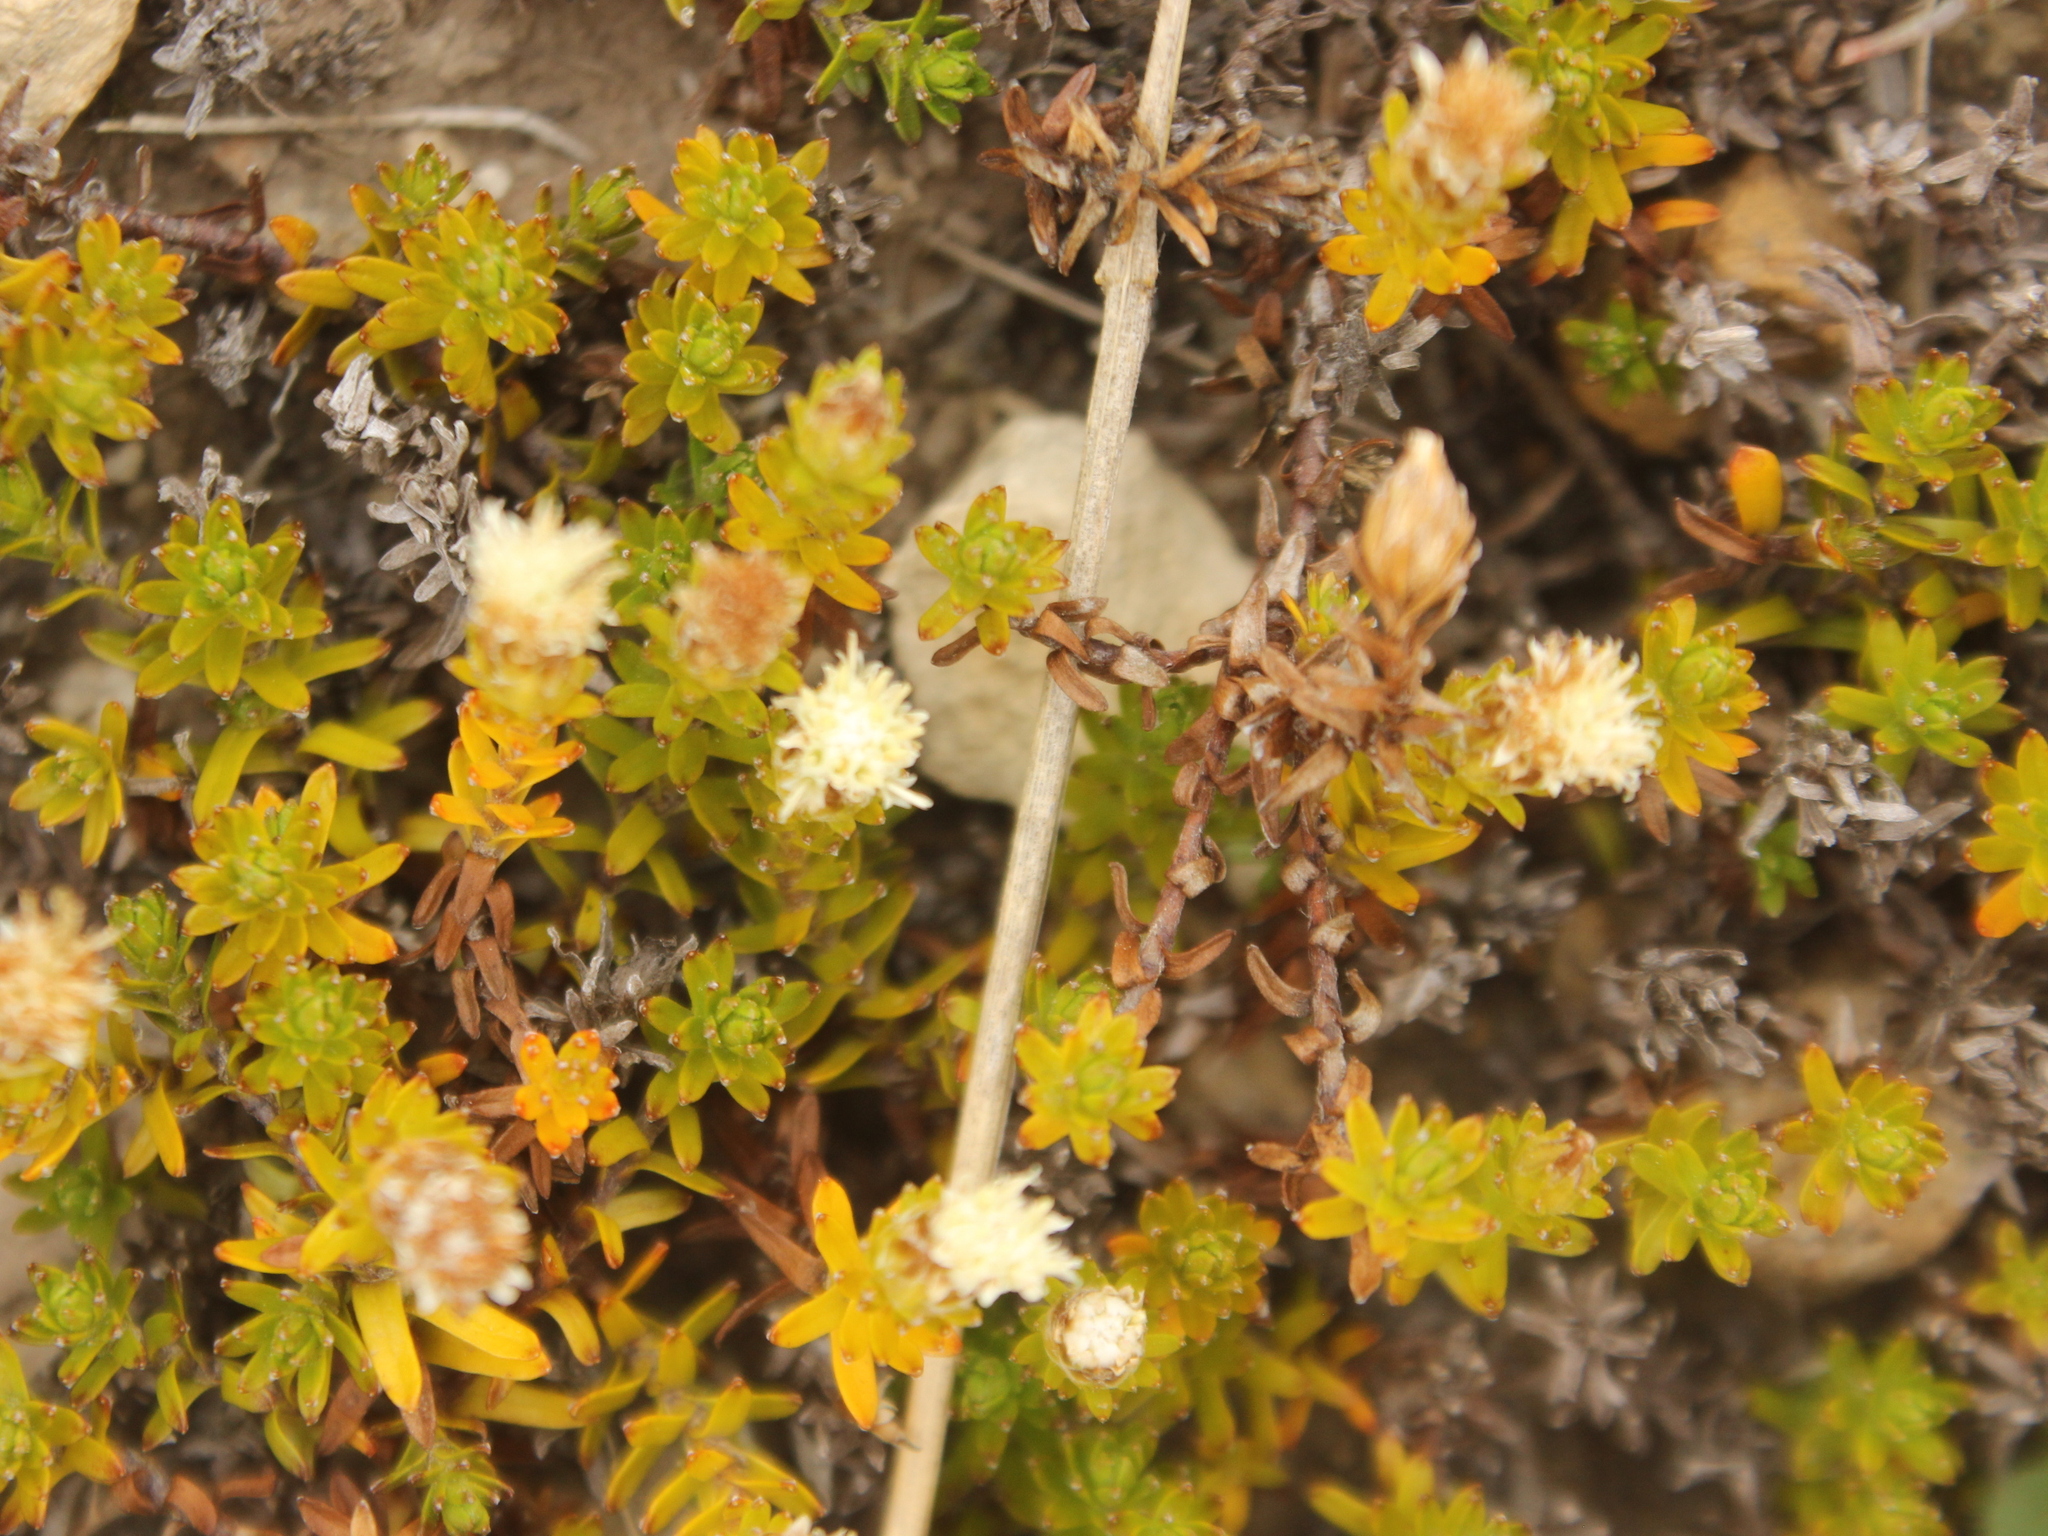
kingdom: Plantae
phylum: Tracheophyta
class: Magnoliopsida
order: Asterales
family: Asteraceae
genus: Raoulia
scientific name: Raoulia glabra
